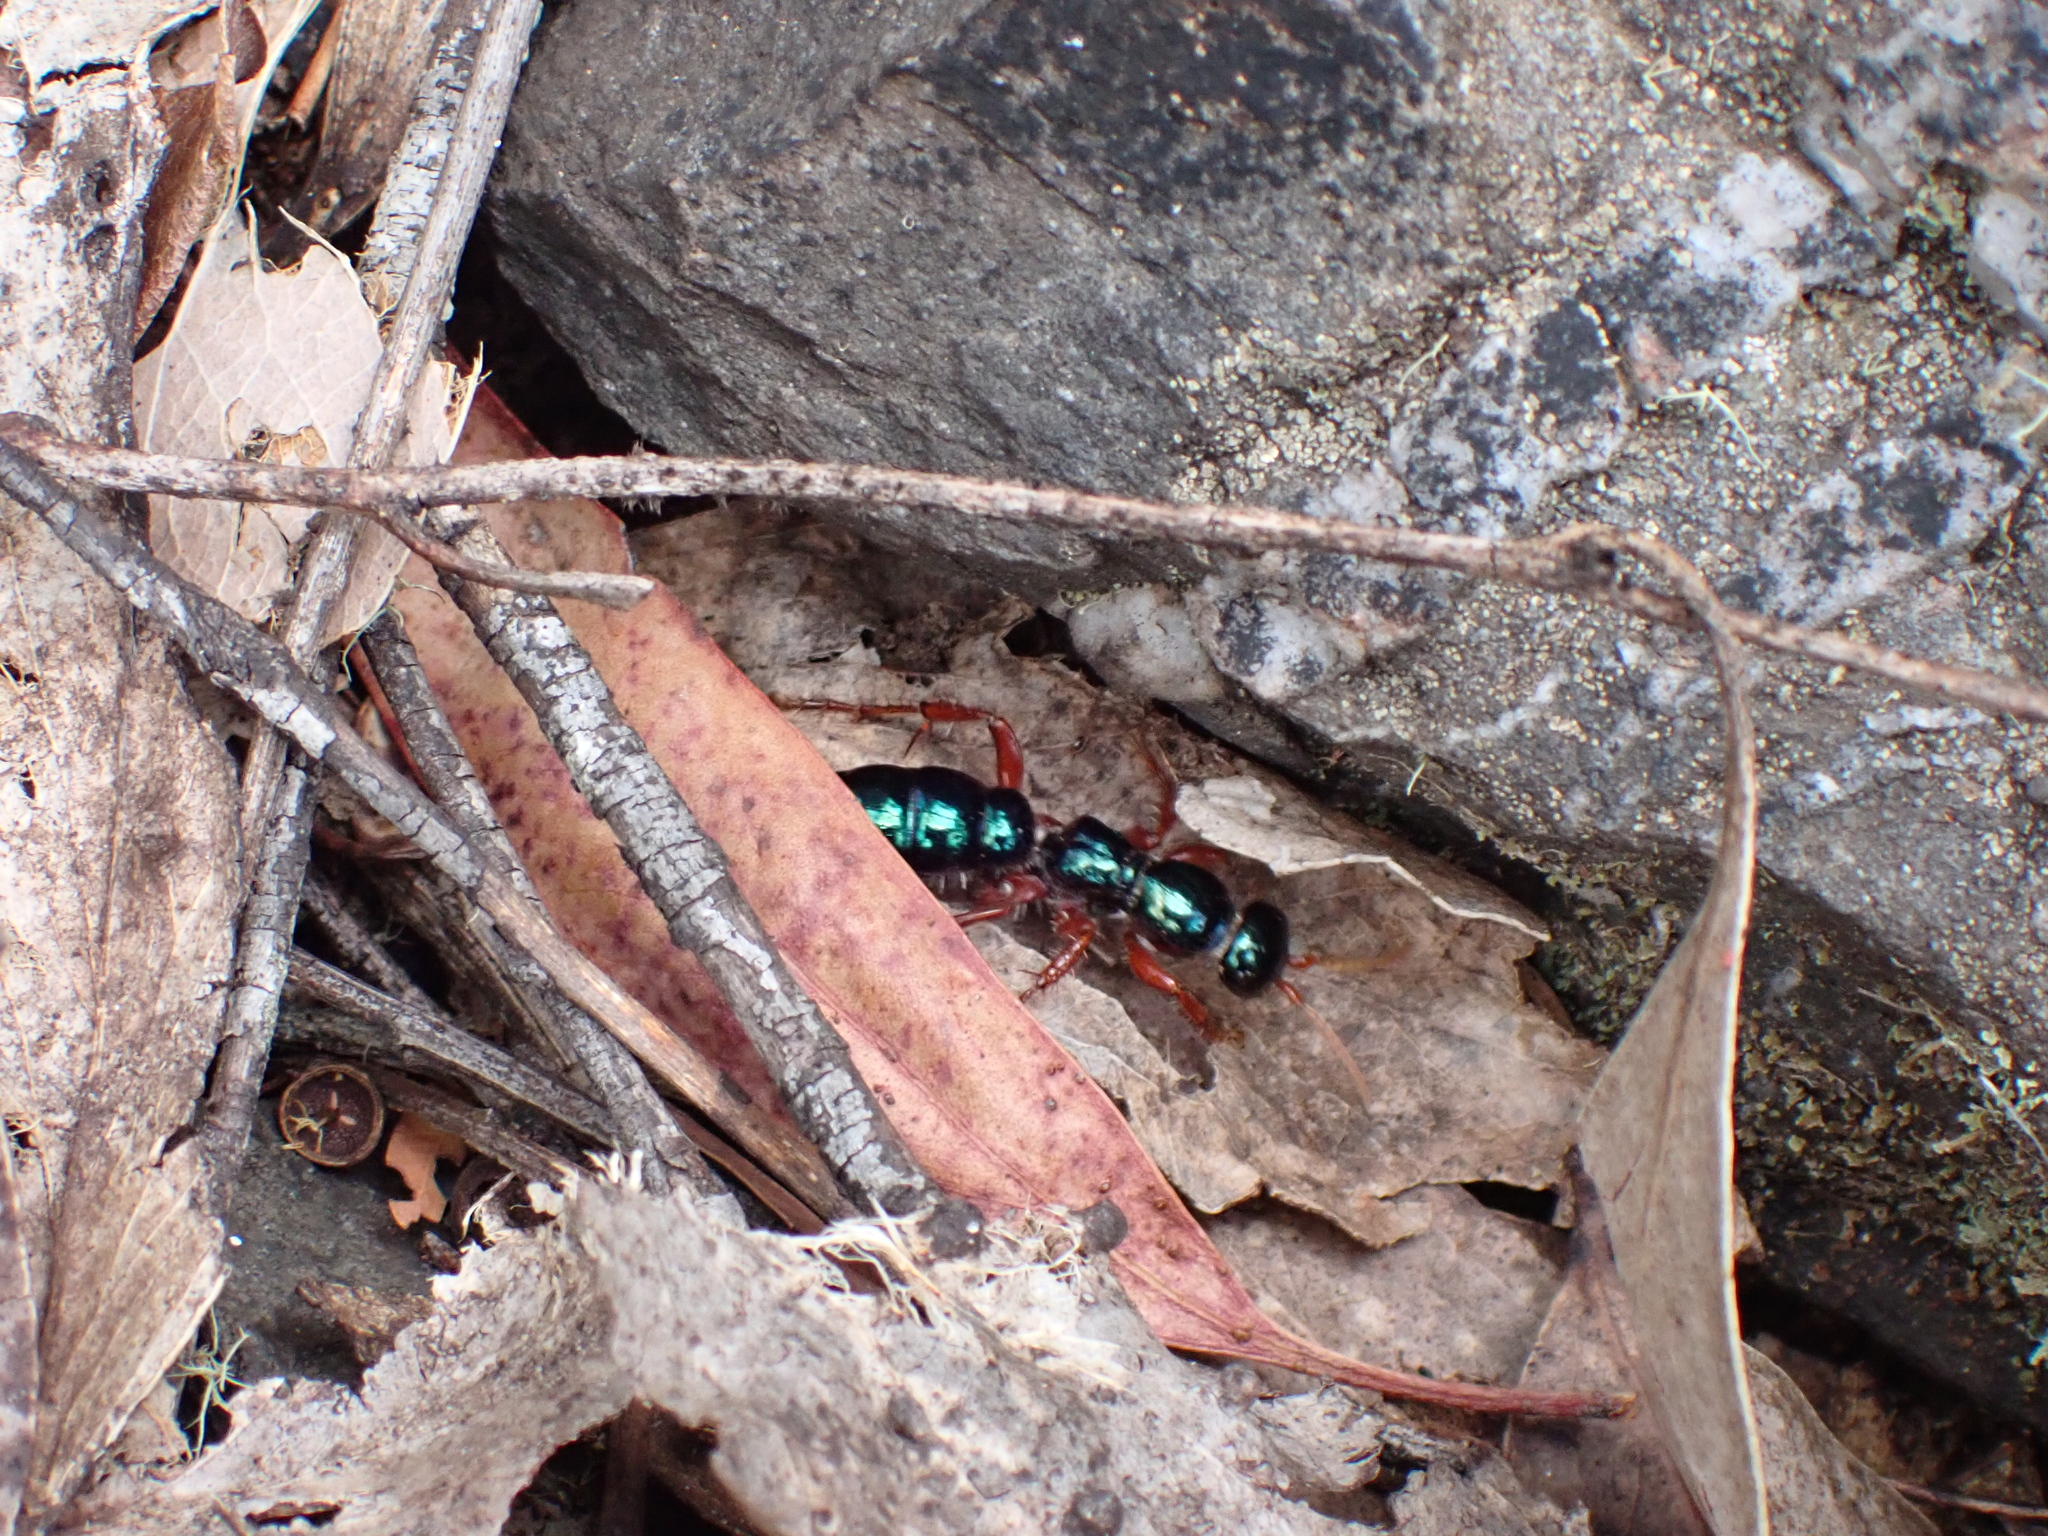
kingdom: Animalia
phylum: Arthropoda
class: Insecta
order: Hymenoptera
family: Tiphiidae
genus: Diamma
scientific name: Diamma
